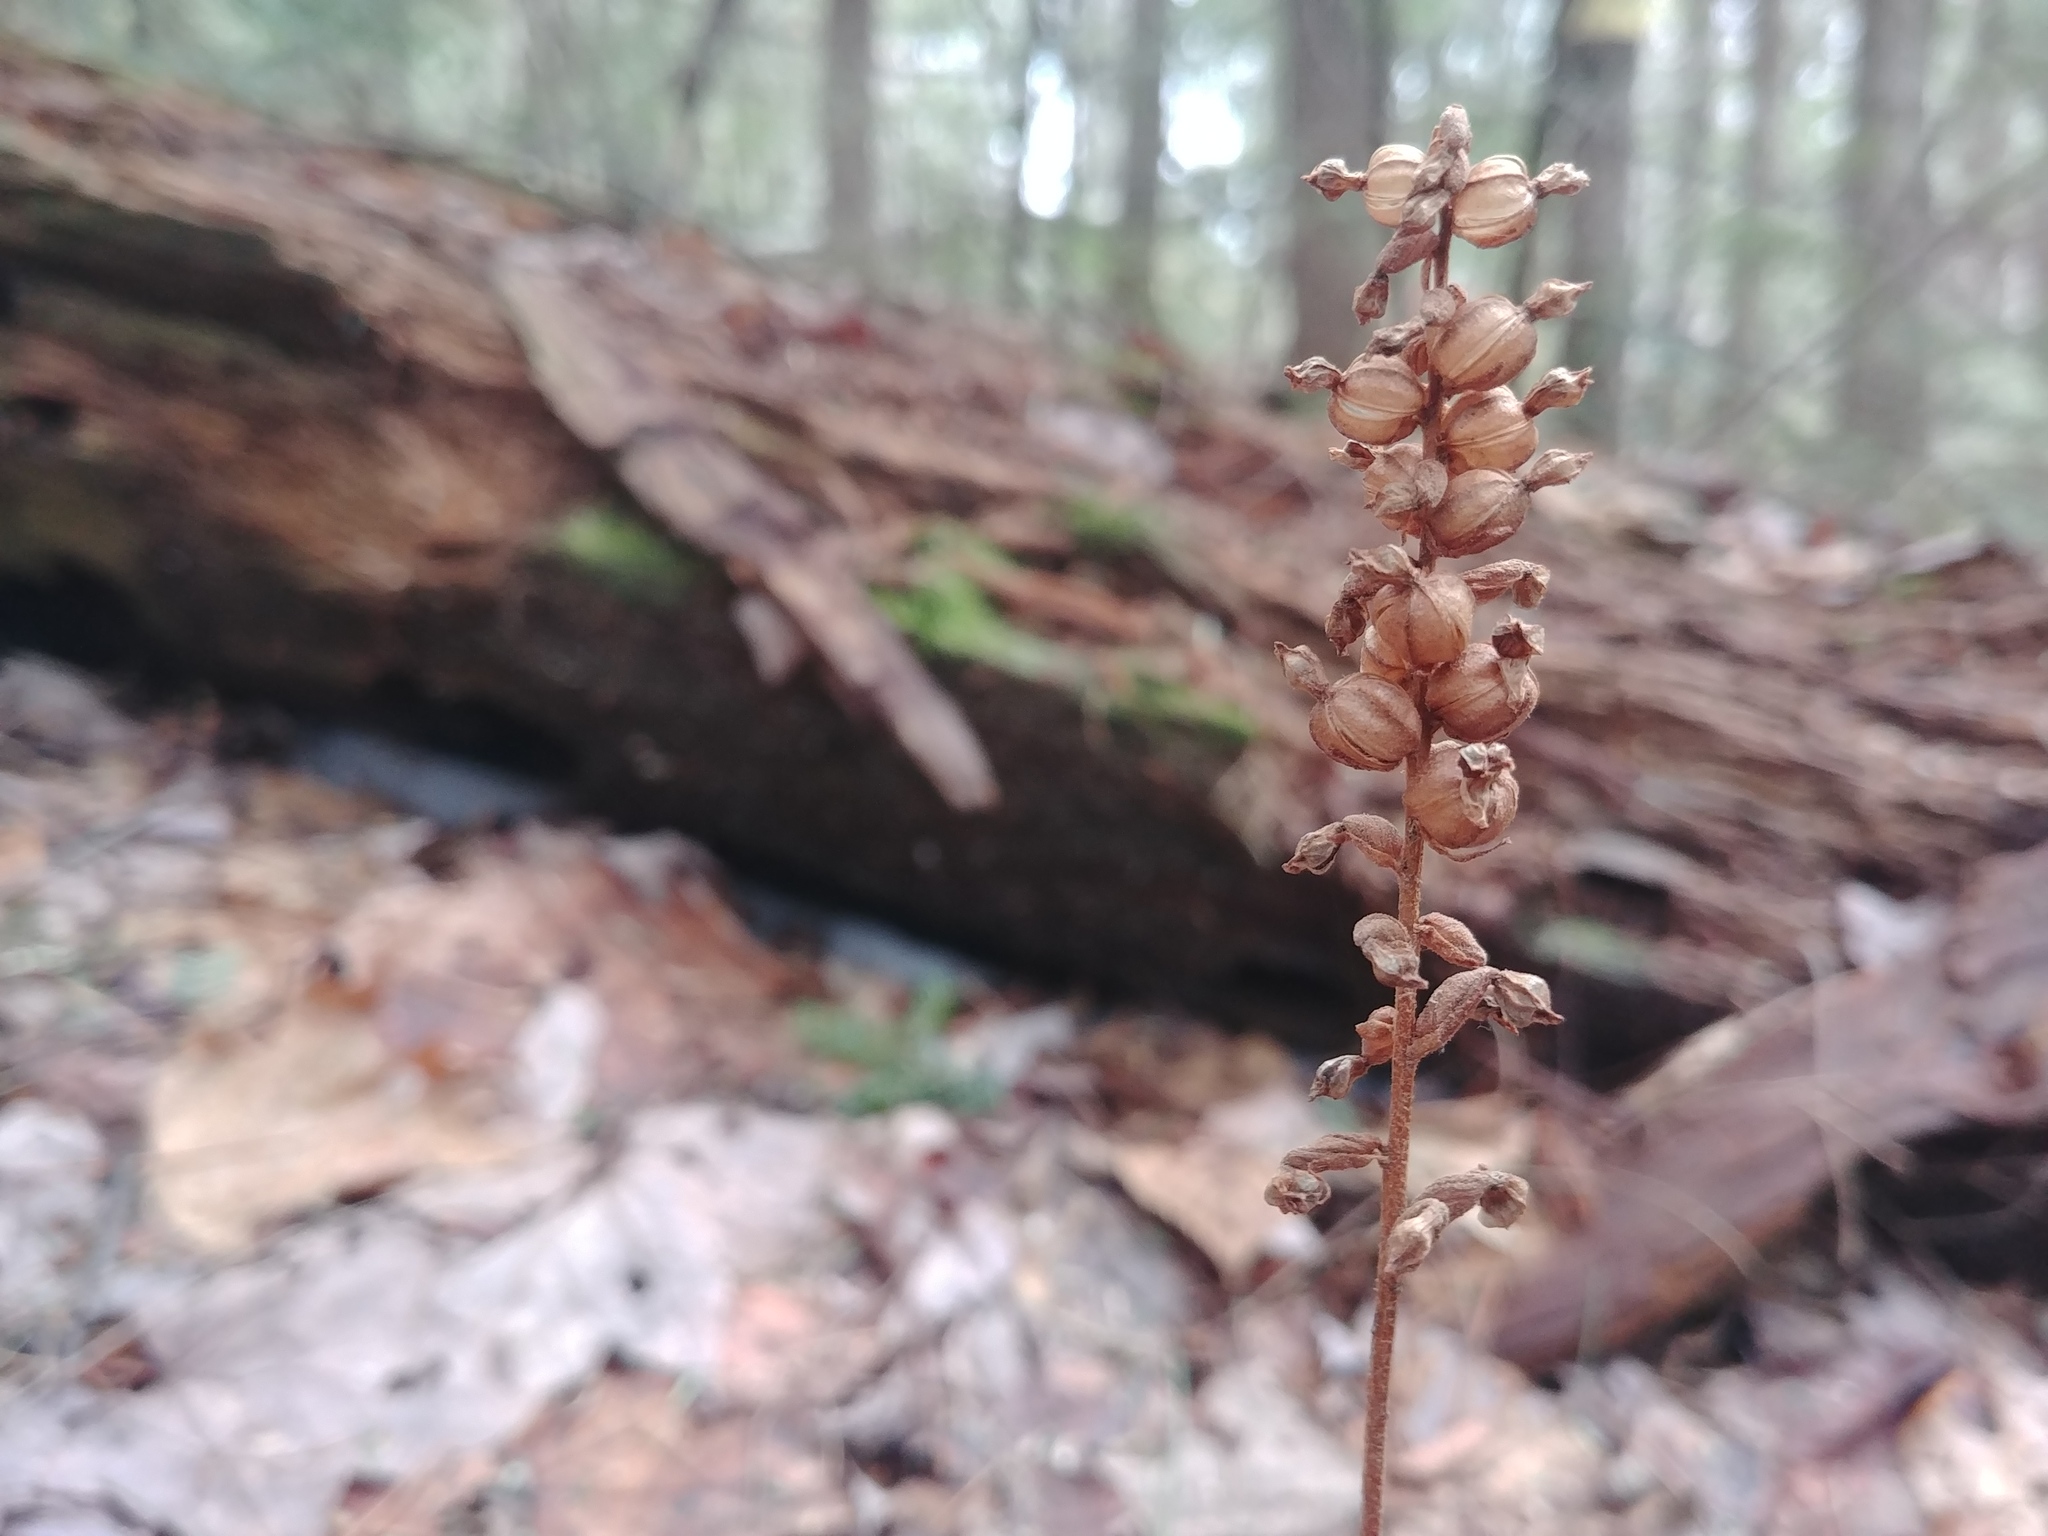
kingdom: Plantae
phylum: Tracheophyta
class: Liliopsida
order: Asparagales
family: Orchidaceae
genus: Goodyera
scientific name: Goodyera pubescens
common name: Downy rattlesnake-plantain
